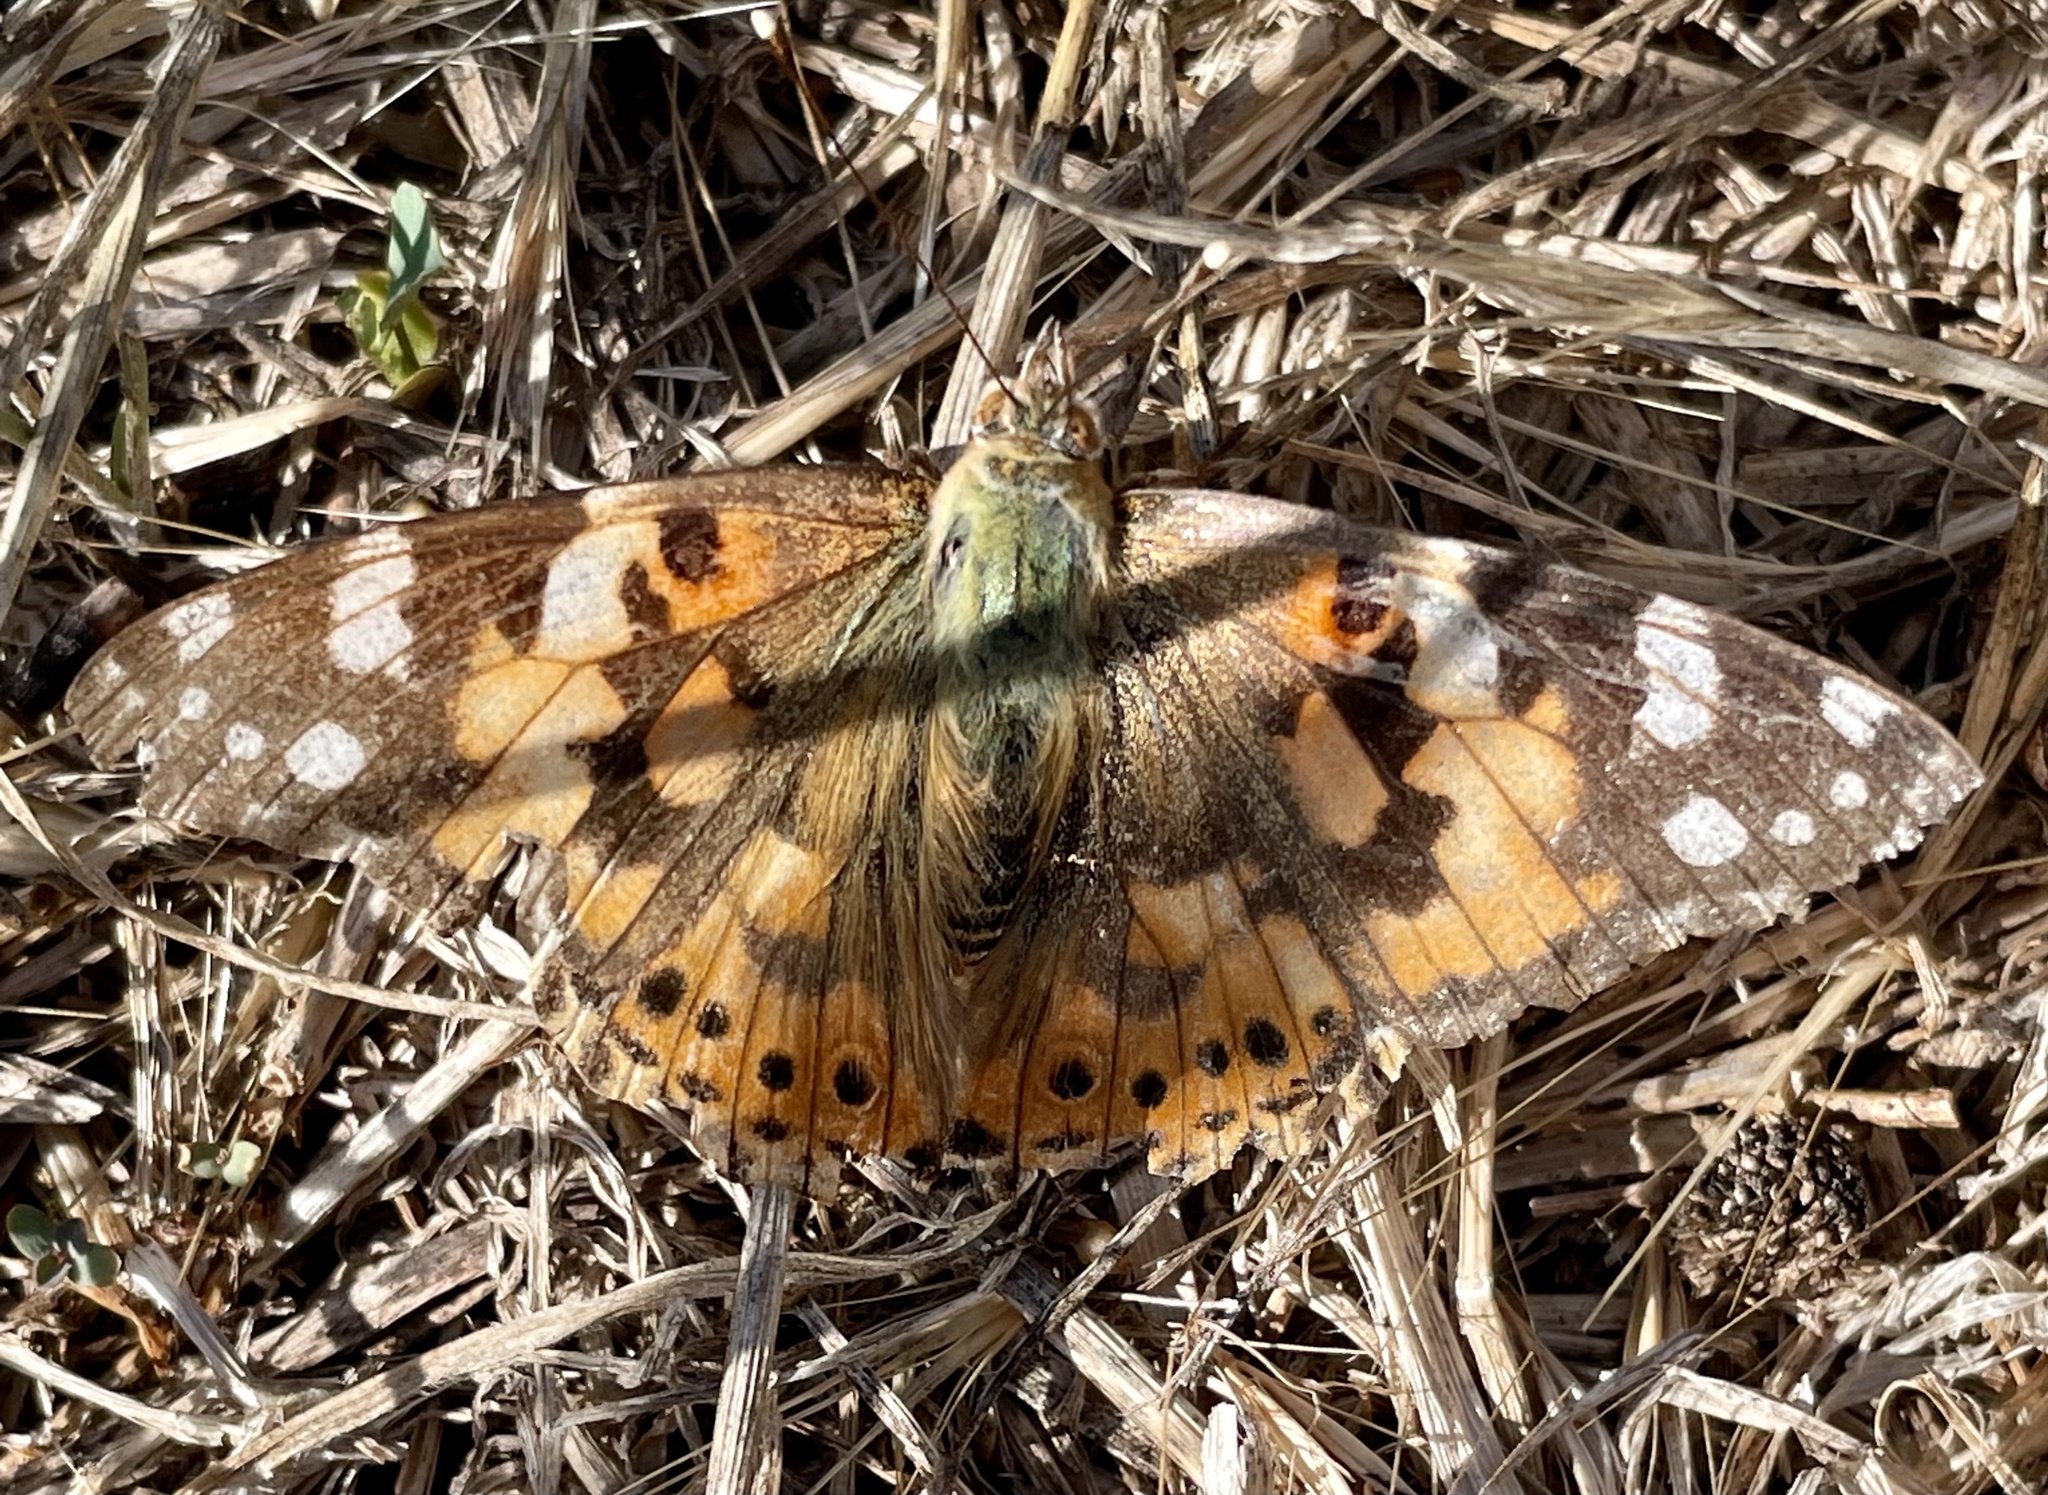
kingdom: Animalia
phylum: Arthropoda
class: Insecta
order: Lepidoptera
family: Nymphalidae
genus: Vanessa
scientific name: Vanessa cardui
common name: Painted lady
